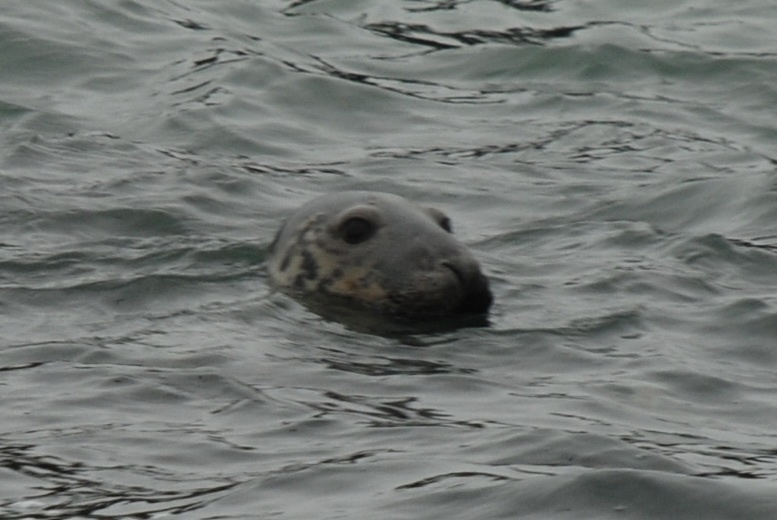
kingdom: Animalia
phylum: Chordata
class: Mammalia
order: Carnivora
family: Phocidae
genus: Halichoerus
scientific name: Halichoerus grypus
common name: Grey seal
